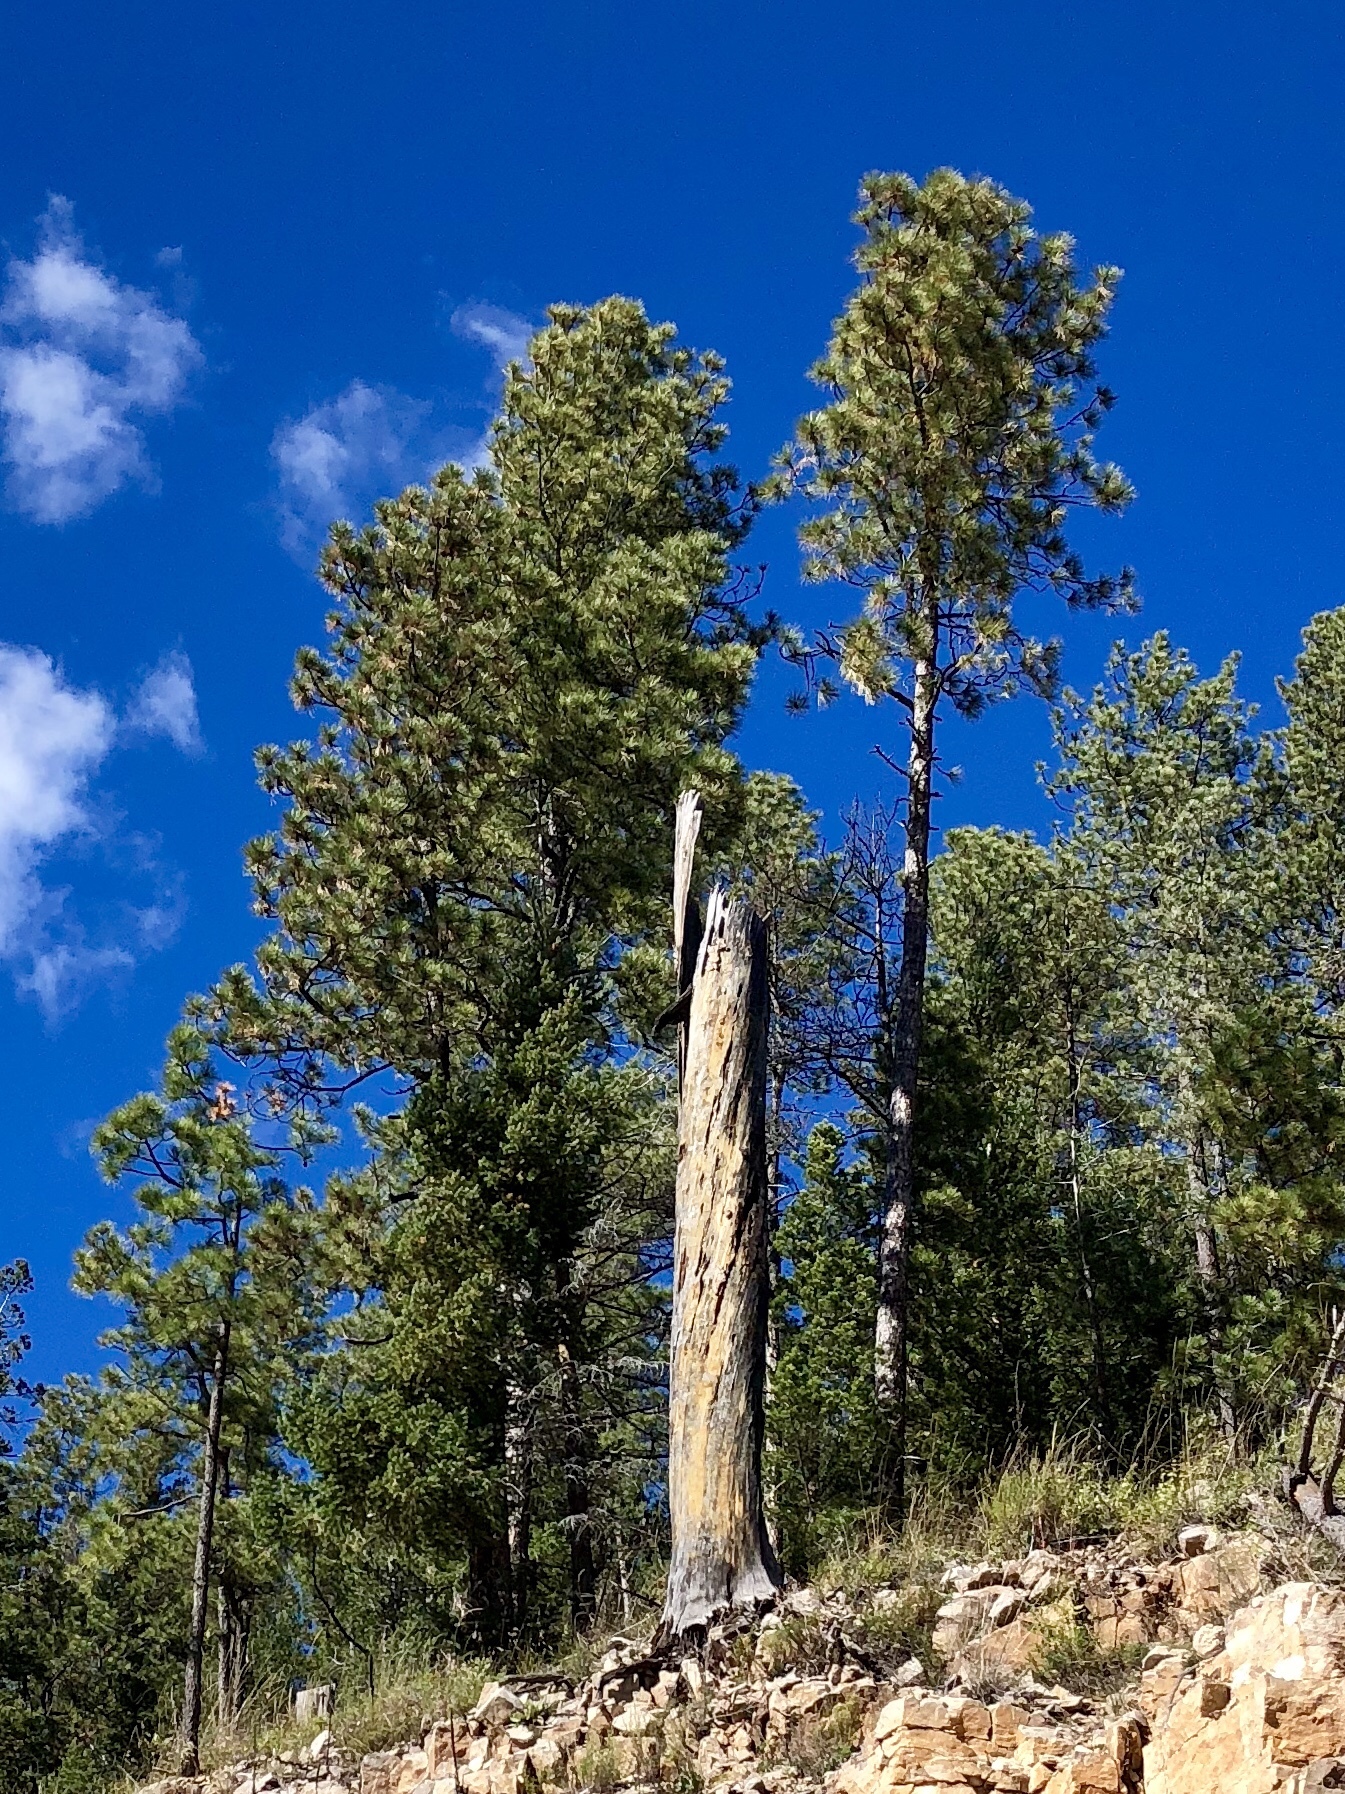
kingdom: Plantae
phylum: Tracheophyta
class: Pinopsida
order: Pinales
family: Pinaceae
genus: Pinus
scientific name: Pinus ponderosa
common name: Western yellow-pine
